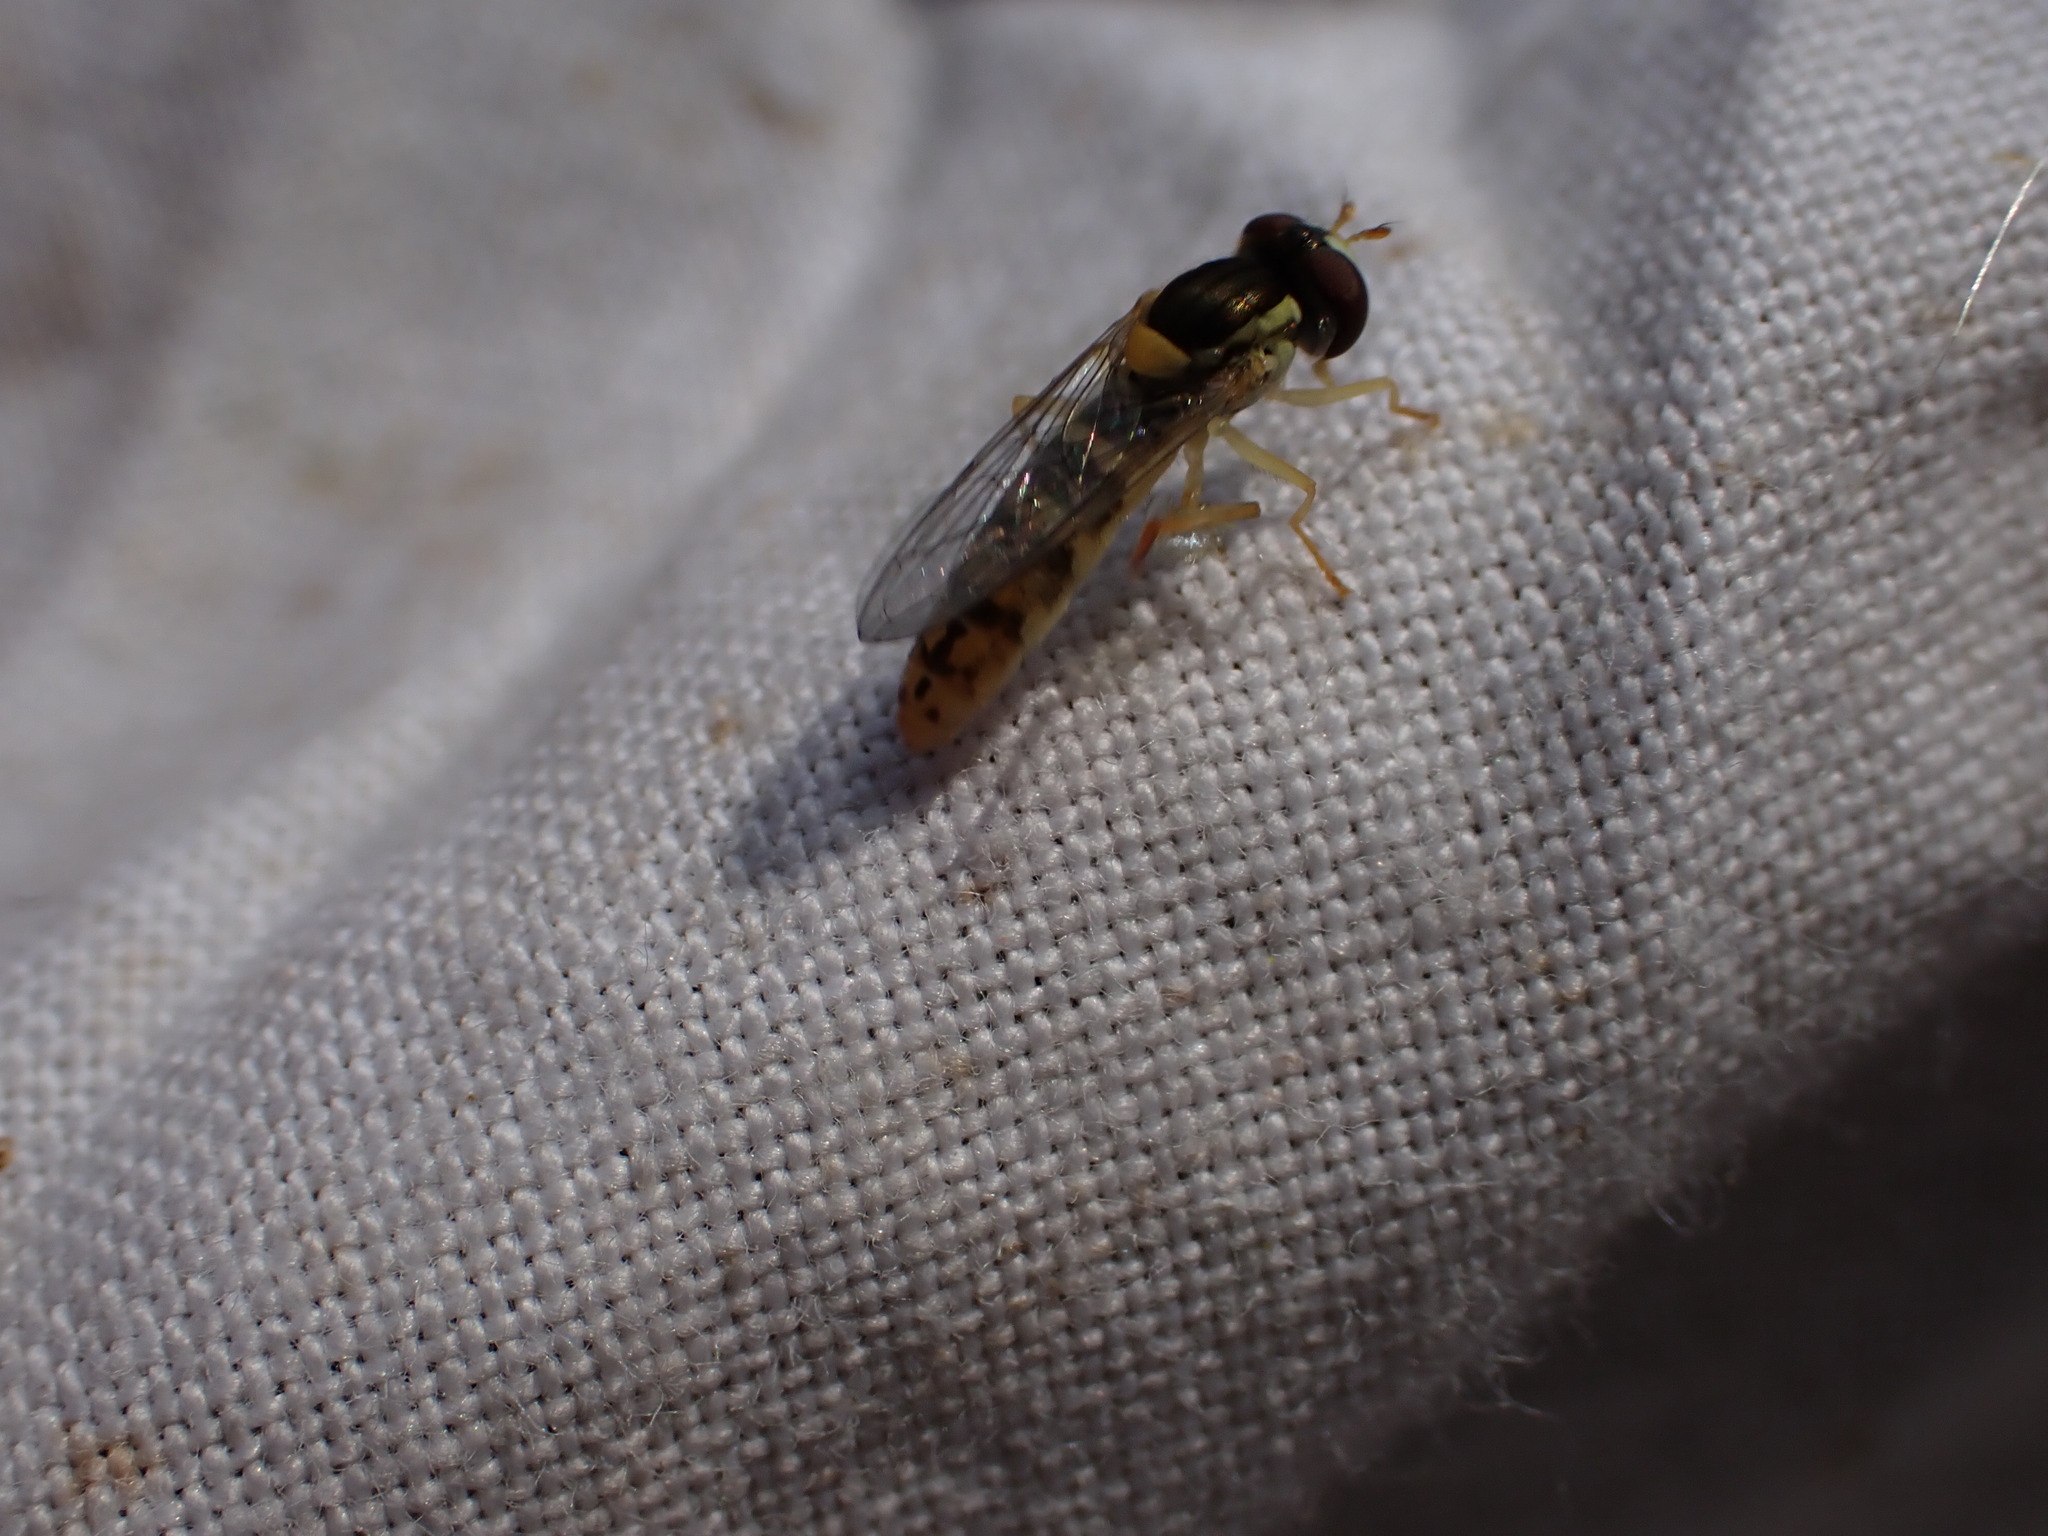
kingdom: Animalia
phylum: Arthropoda
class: Insecta
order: Diptera
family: Syrphidae
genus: Sphaerophoria
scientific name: Sphaerophoria
